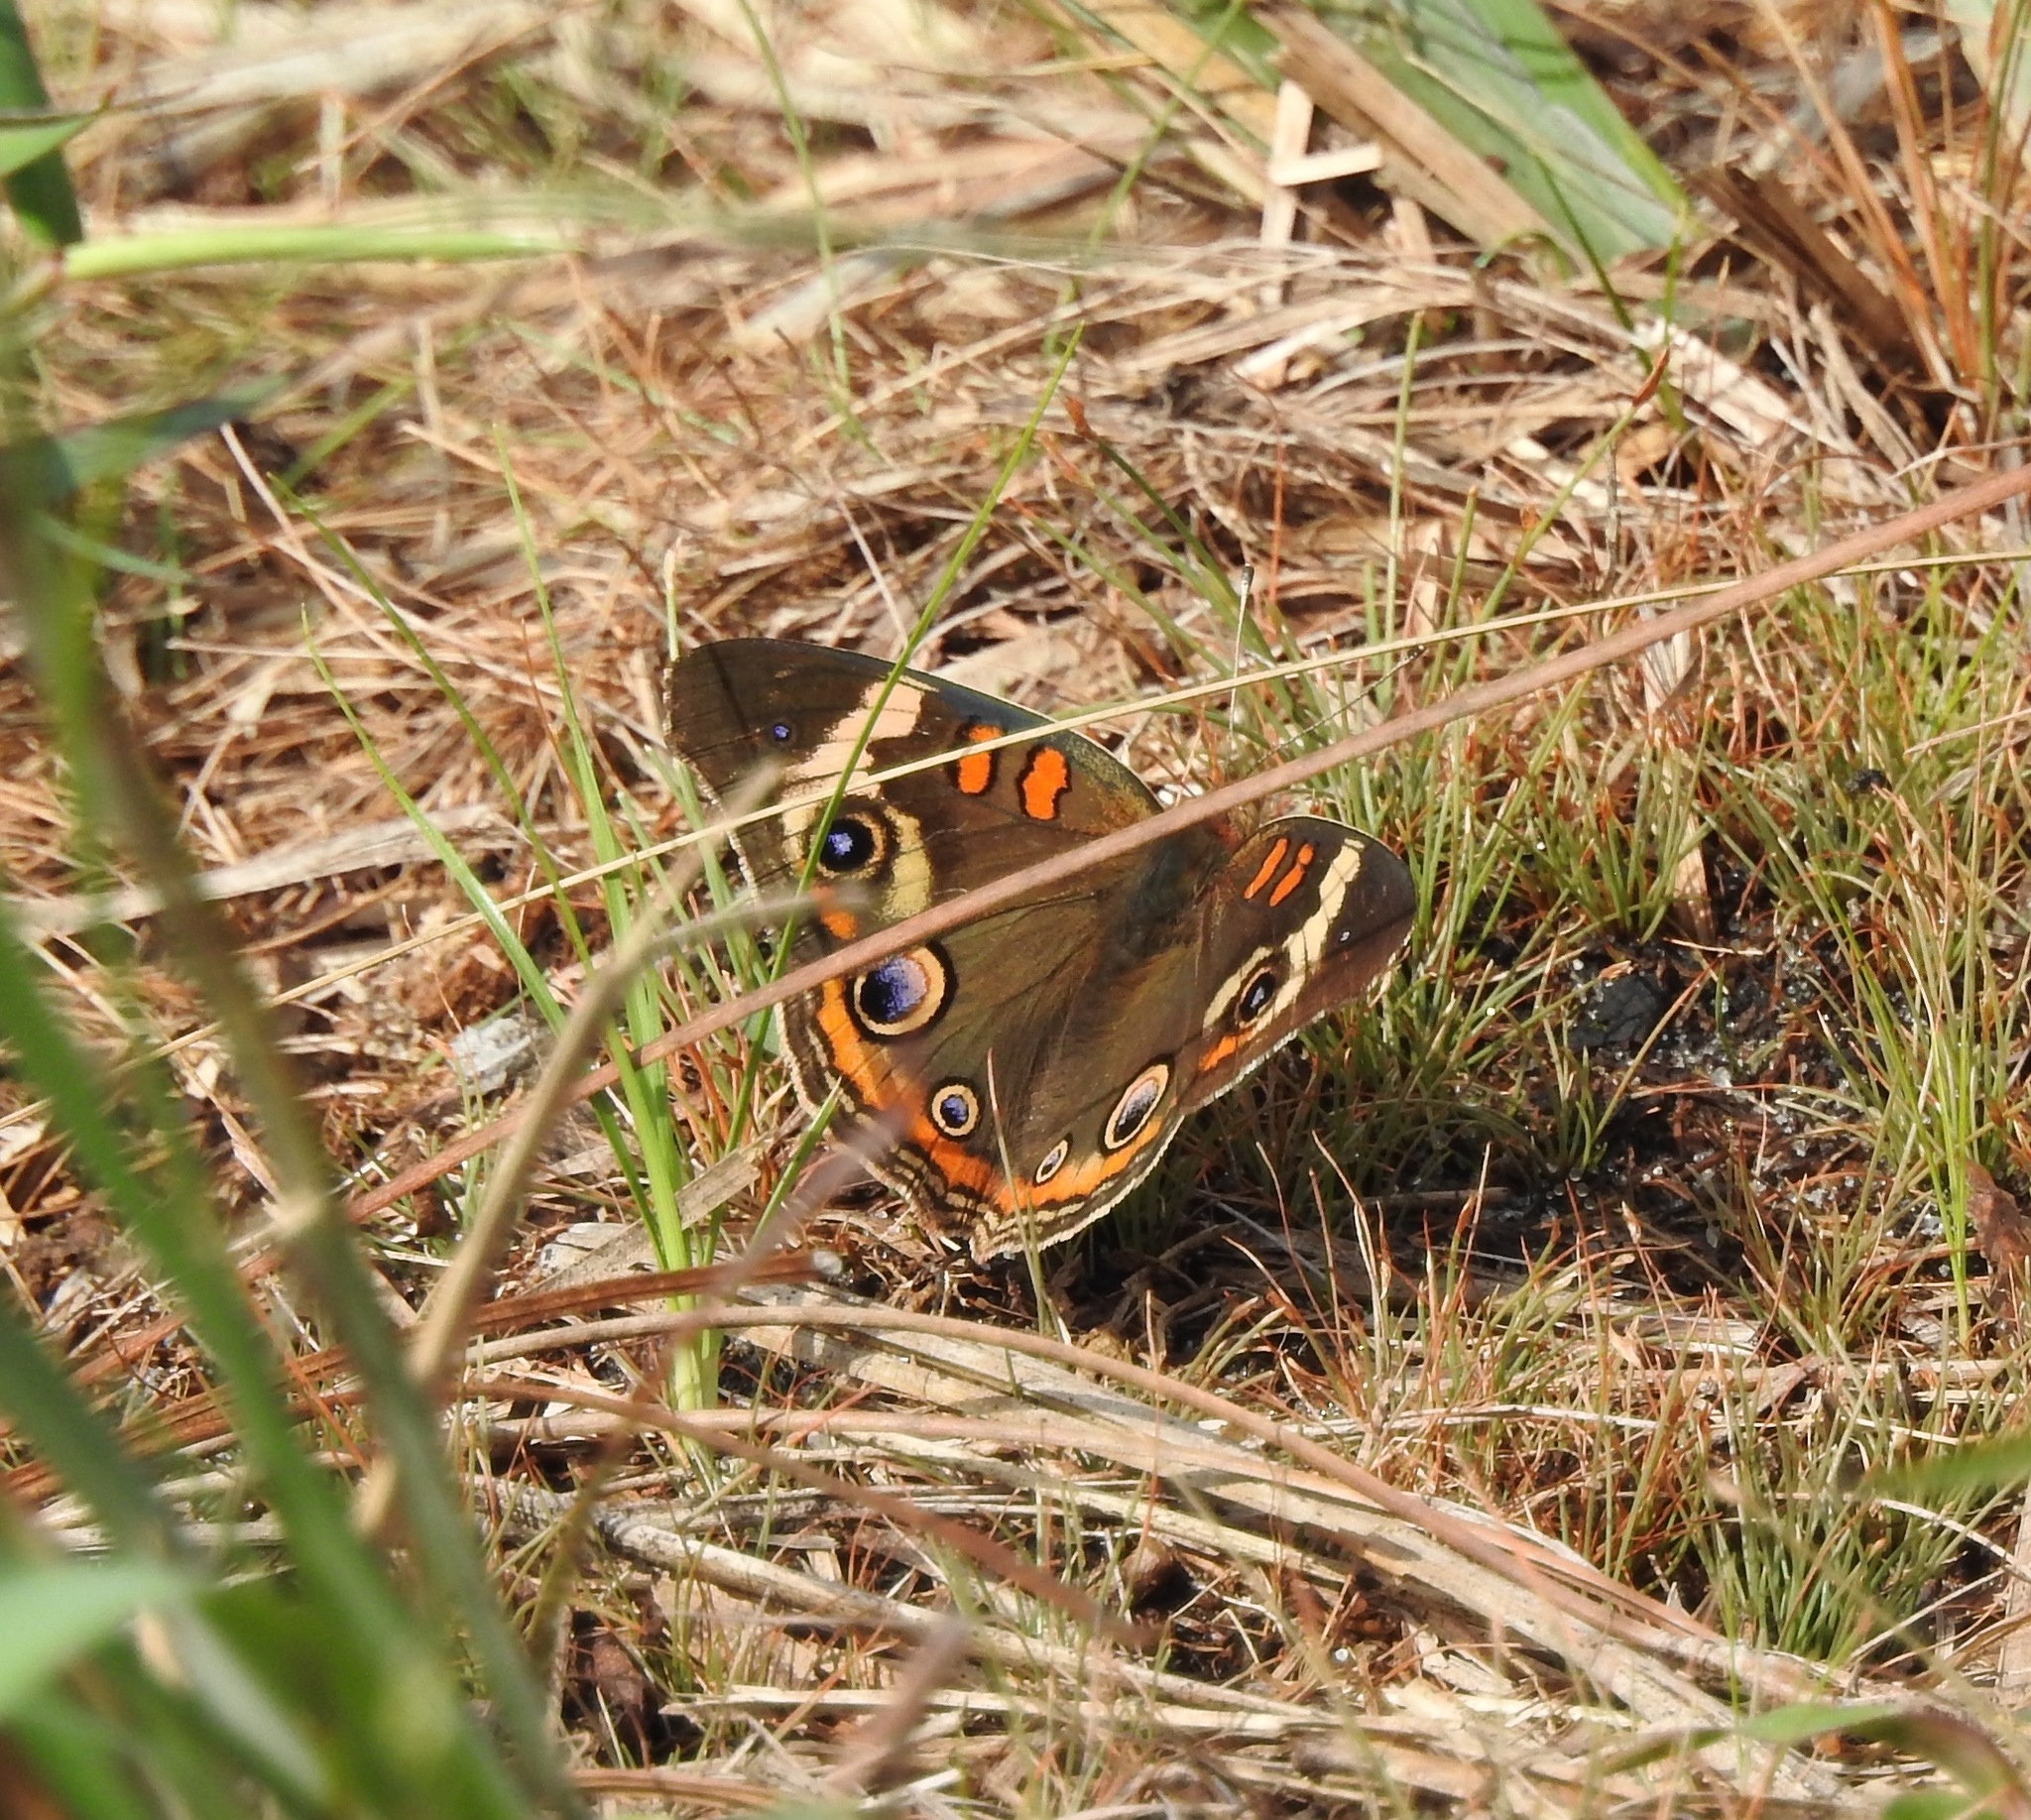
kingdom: Animalia
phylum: Arthropoda
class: Insecta
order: Lepidoptera
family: Nymphalidae
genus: Junonia
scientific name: Junonia coenia
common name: Common buckeye
